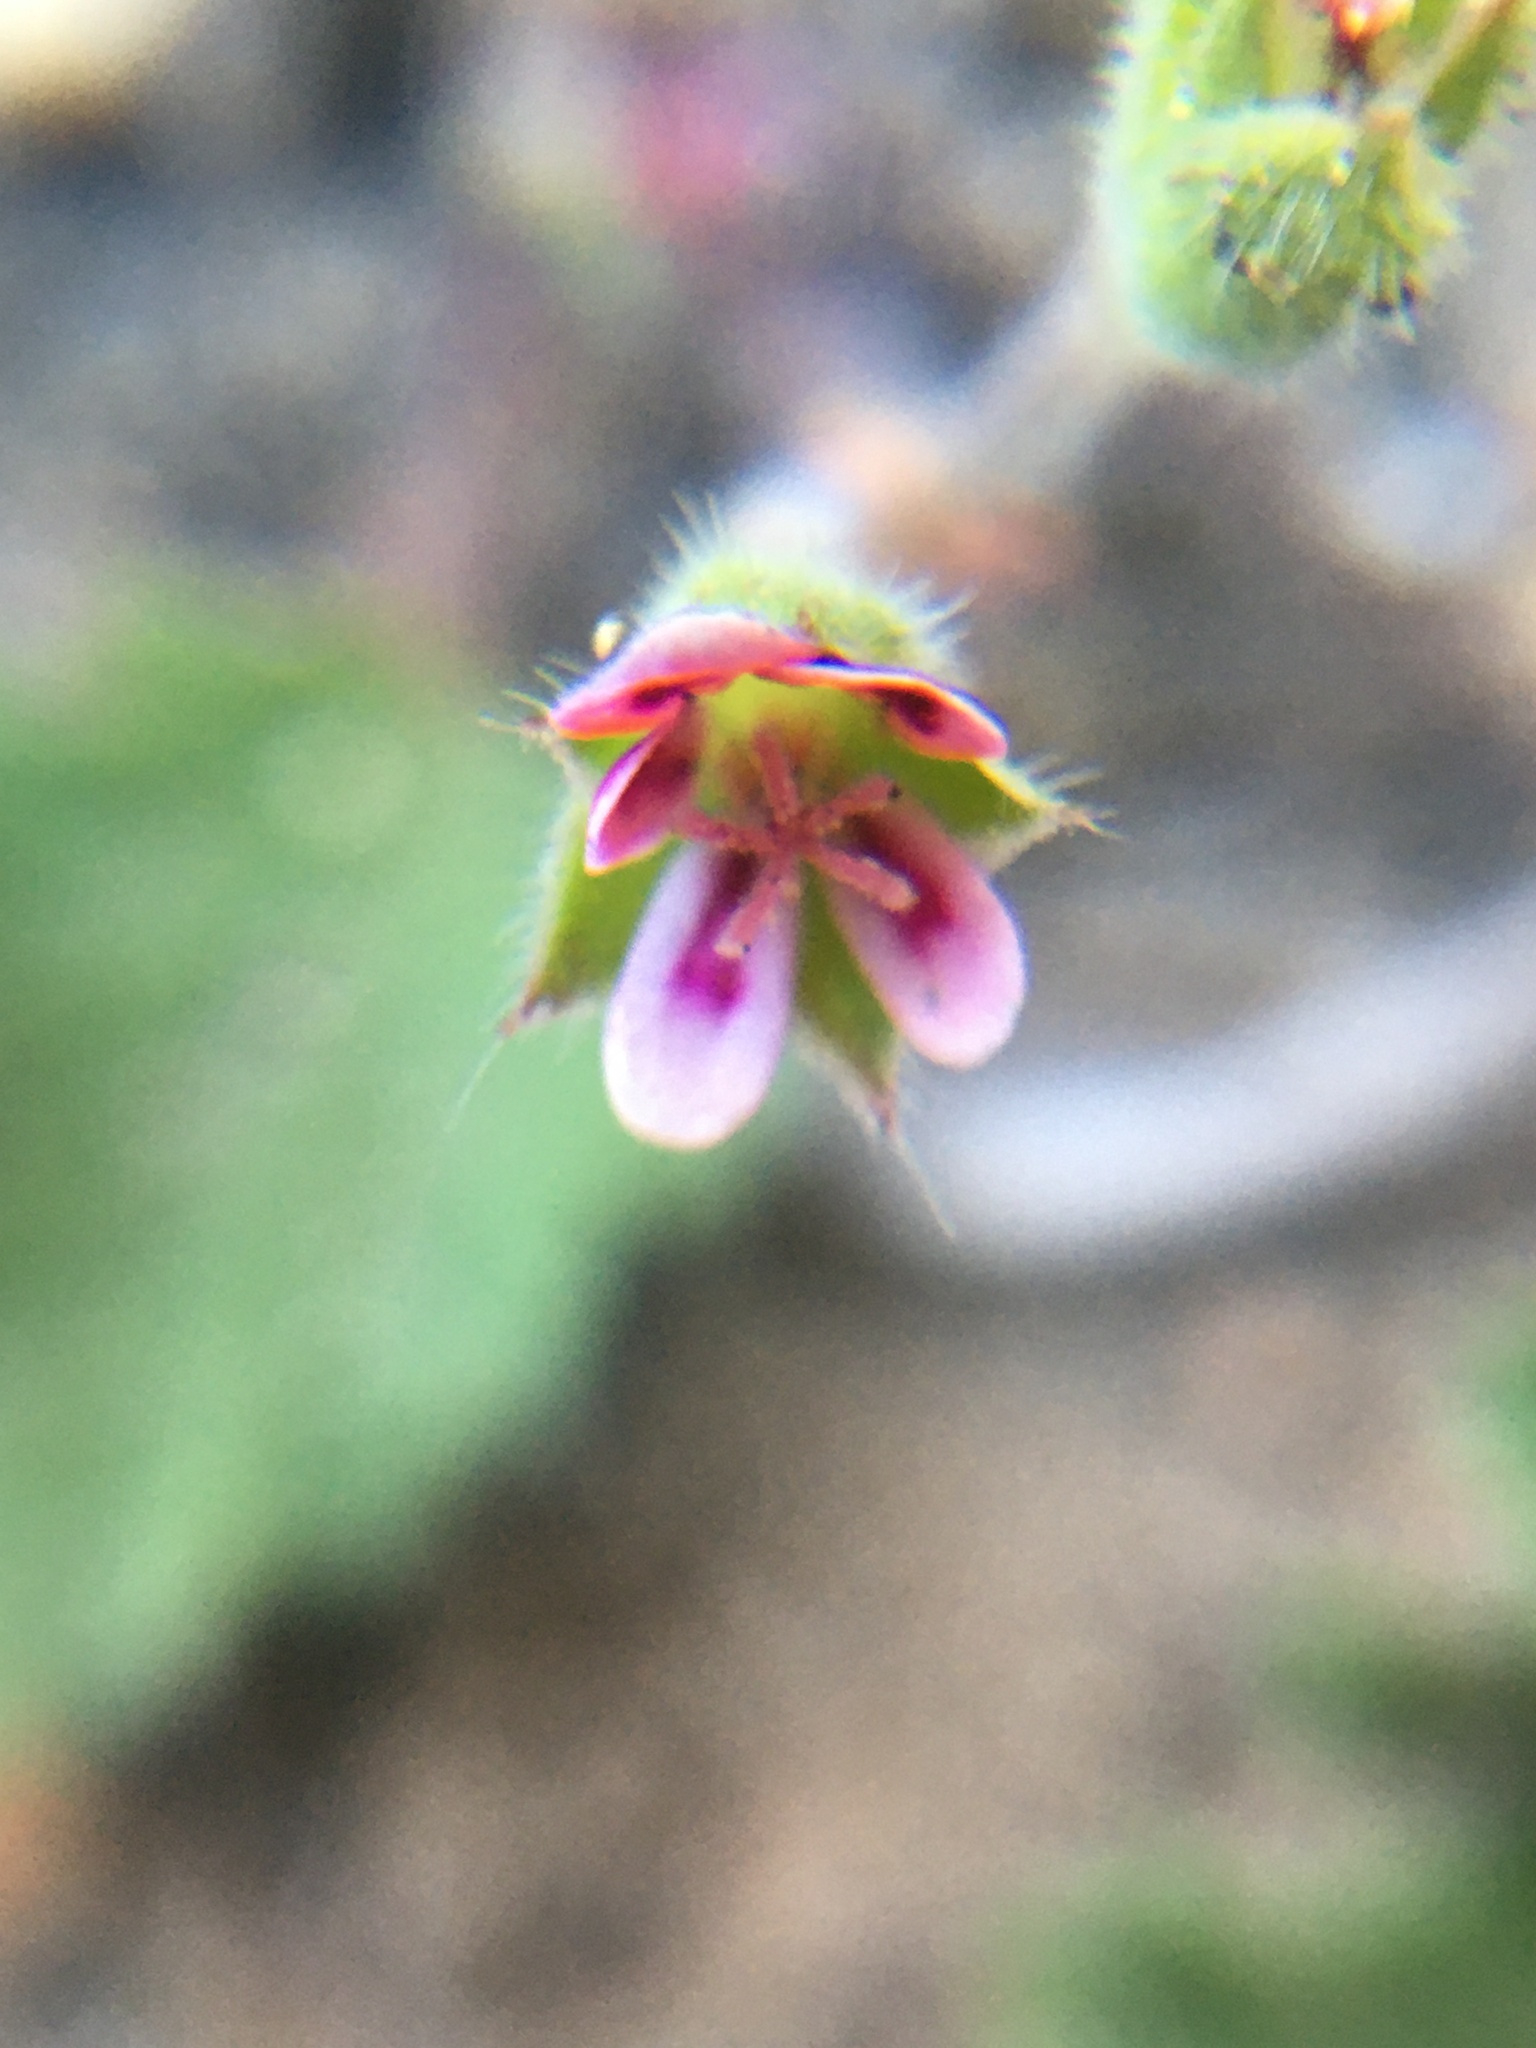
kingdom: Plantae
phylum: Tracheophyta
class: Magnoliopsida
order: Geraniales
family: Geraniaceae
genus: Pelargonium
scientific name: Pelargonium althaeoides
